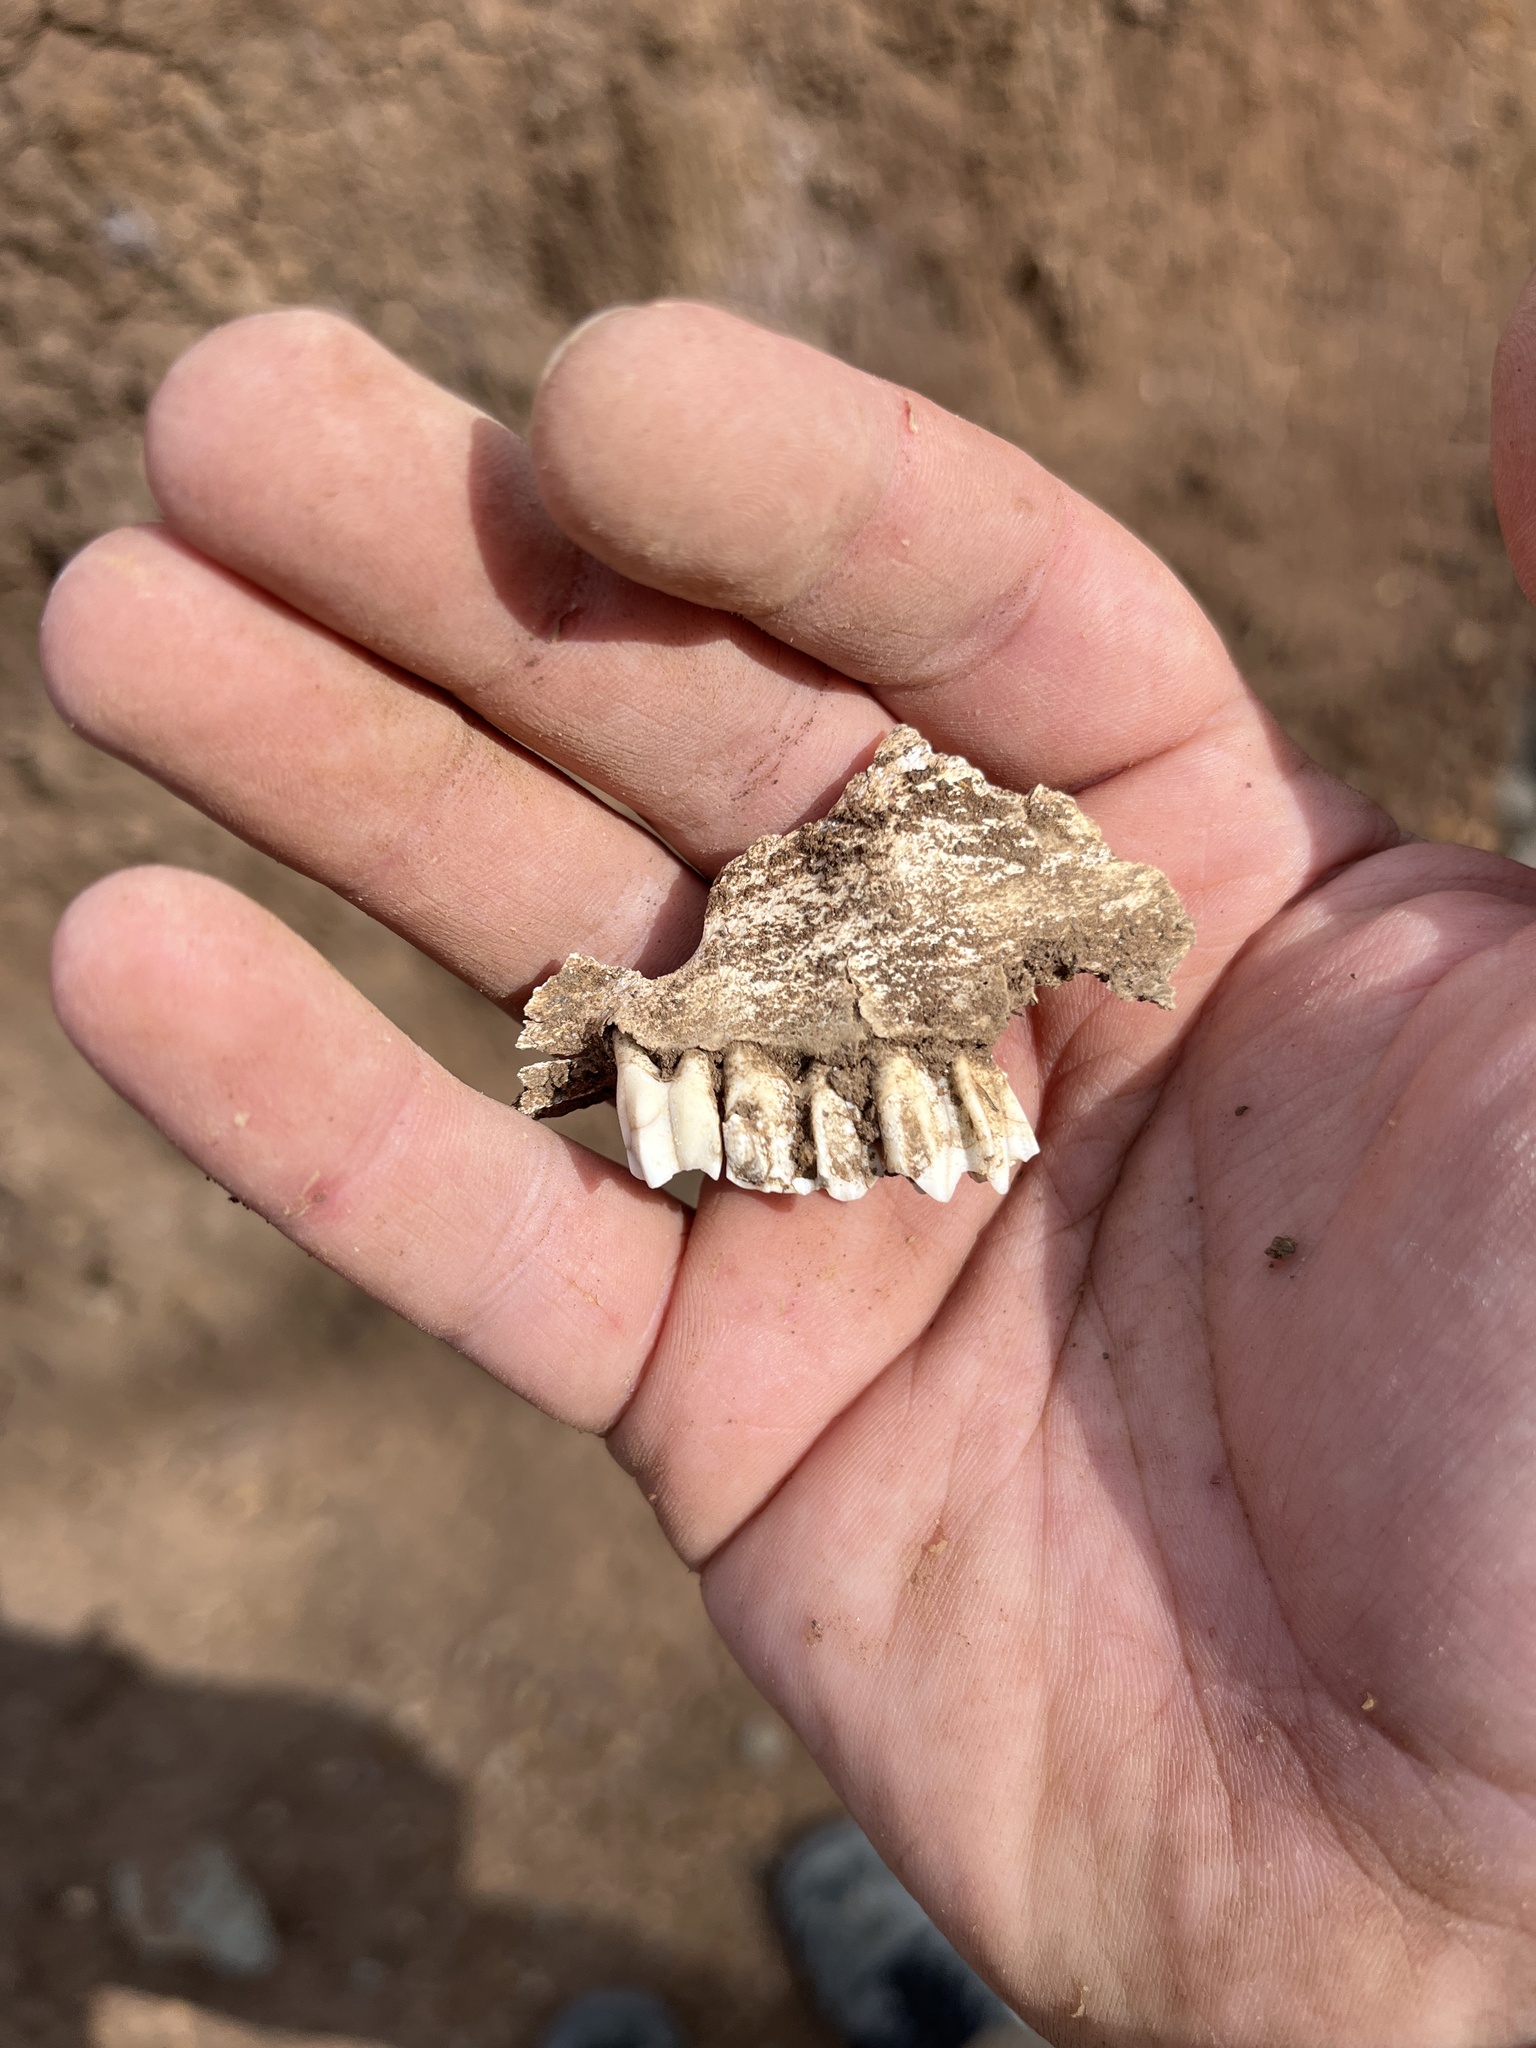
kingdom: Animalia
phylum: Chordata
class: Mammalia
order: Artiodactyla
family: Bovidae
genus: Capra
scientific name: Capra hircus
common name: Domestic goat
